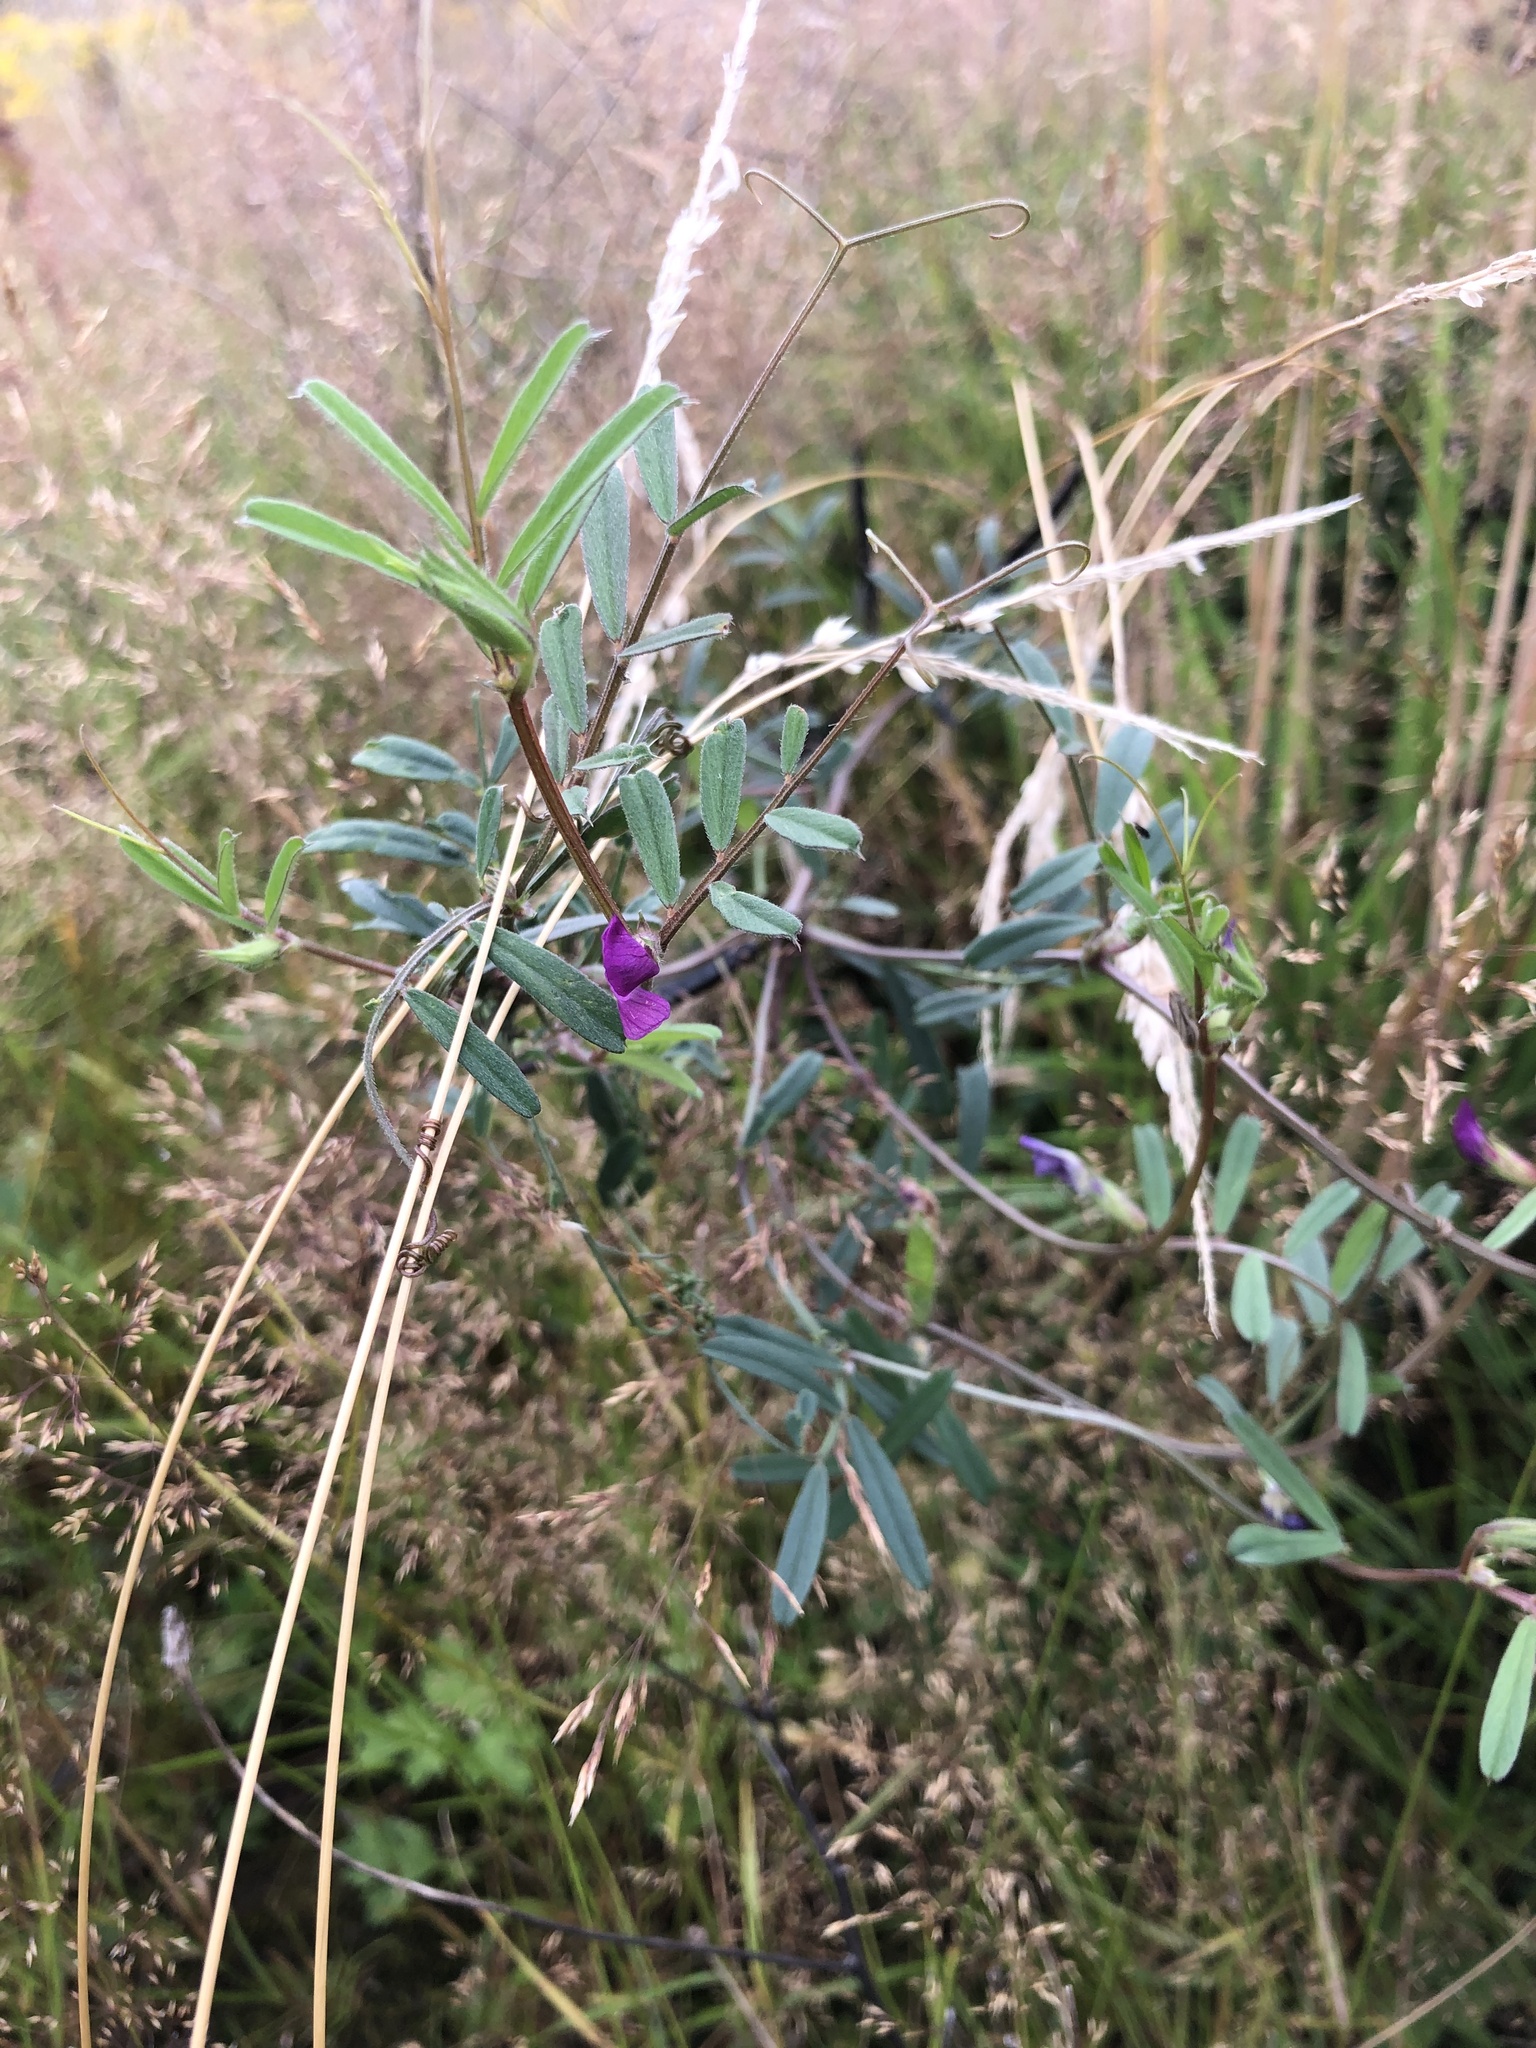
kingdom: Plantae
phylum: Tracheophyta
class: Magnoliopsida
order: Fabales
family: Fabaceae
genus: Vicia
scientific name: Vicia sativa
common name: Garden vetch
